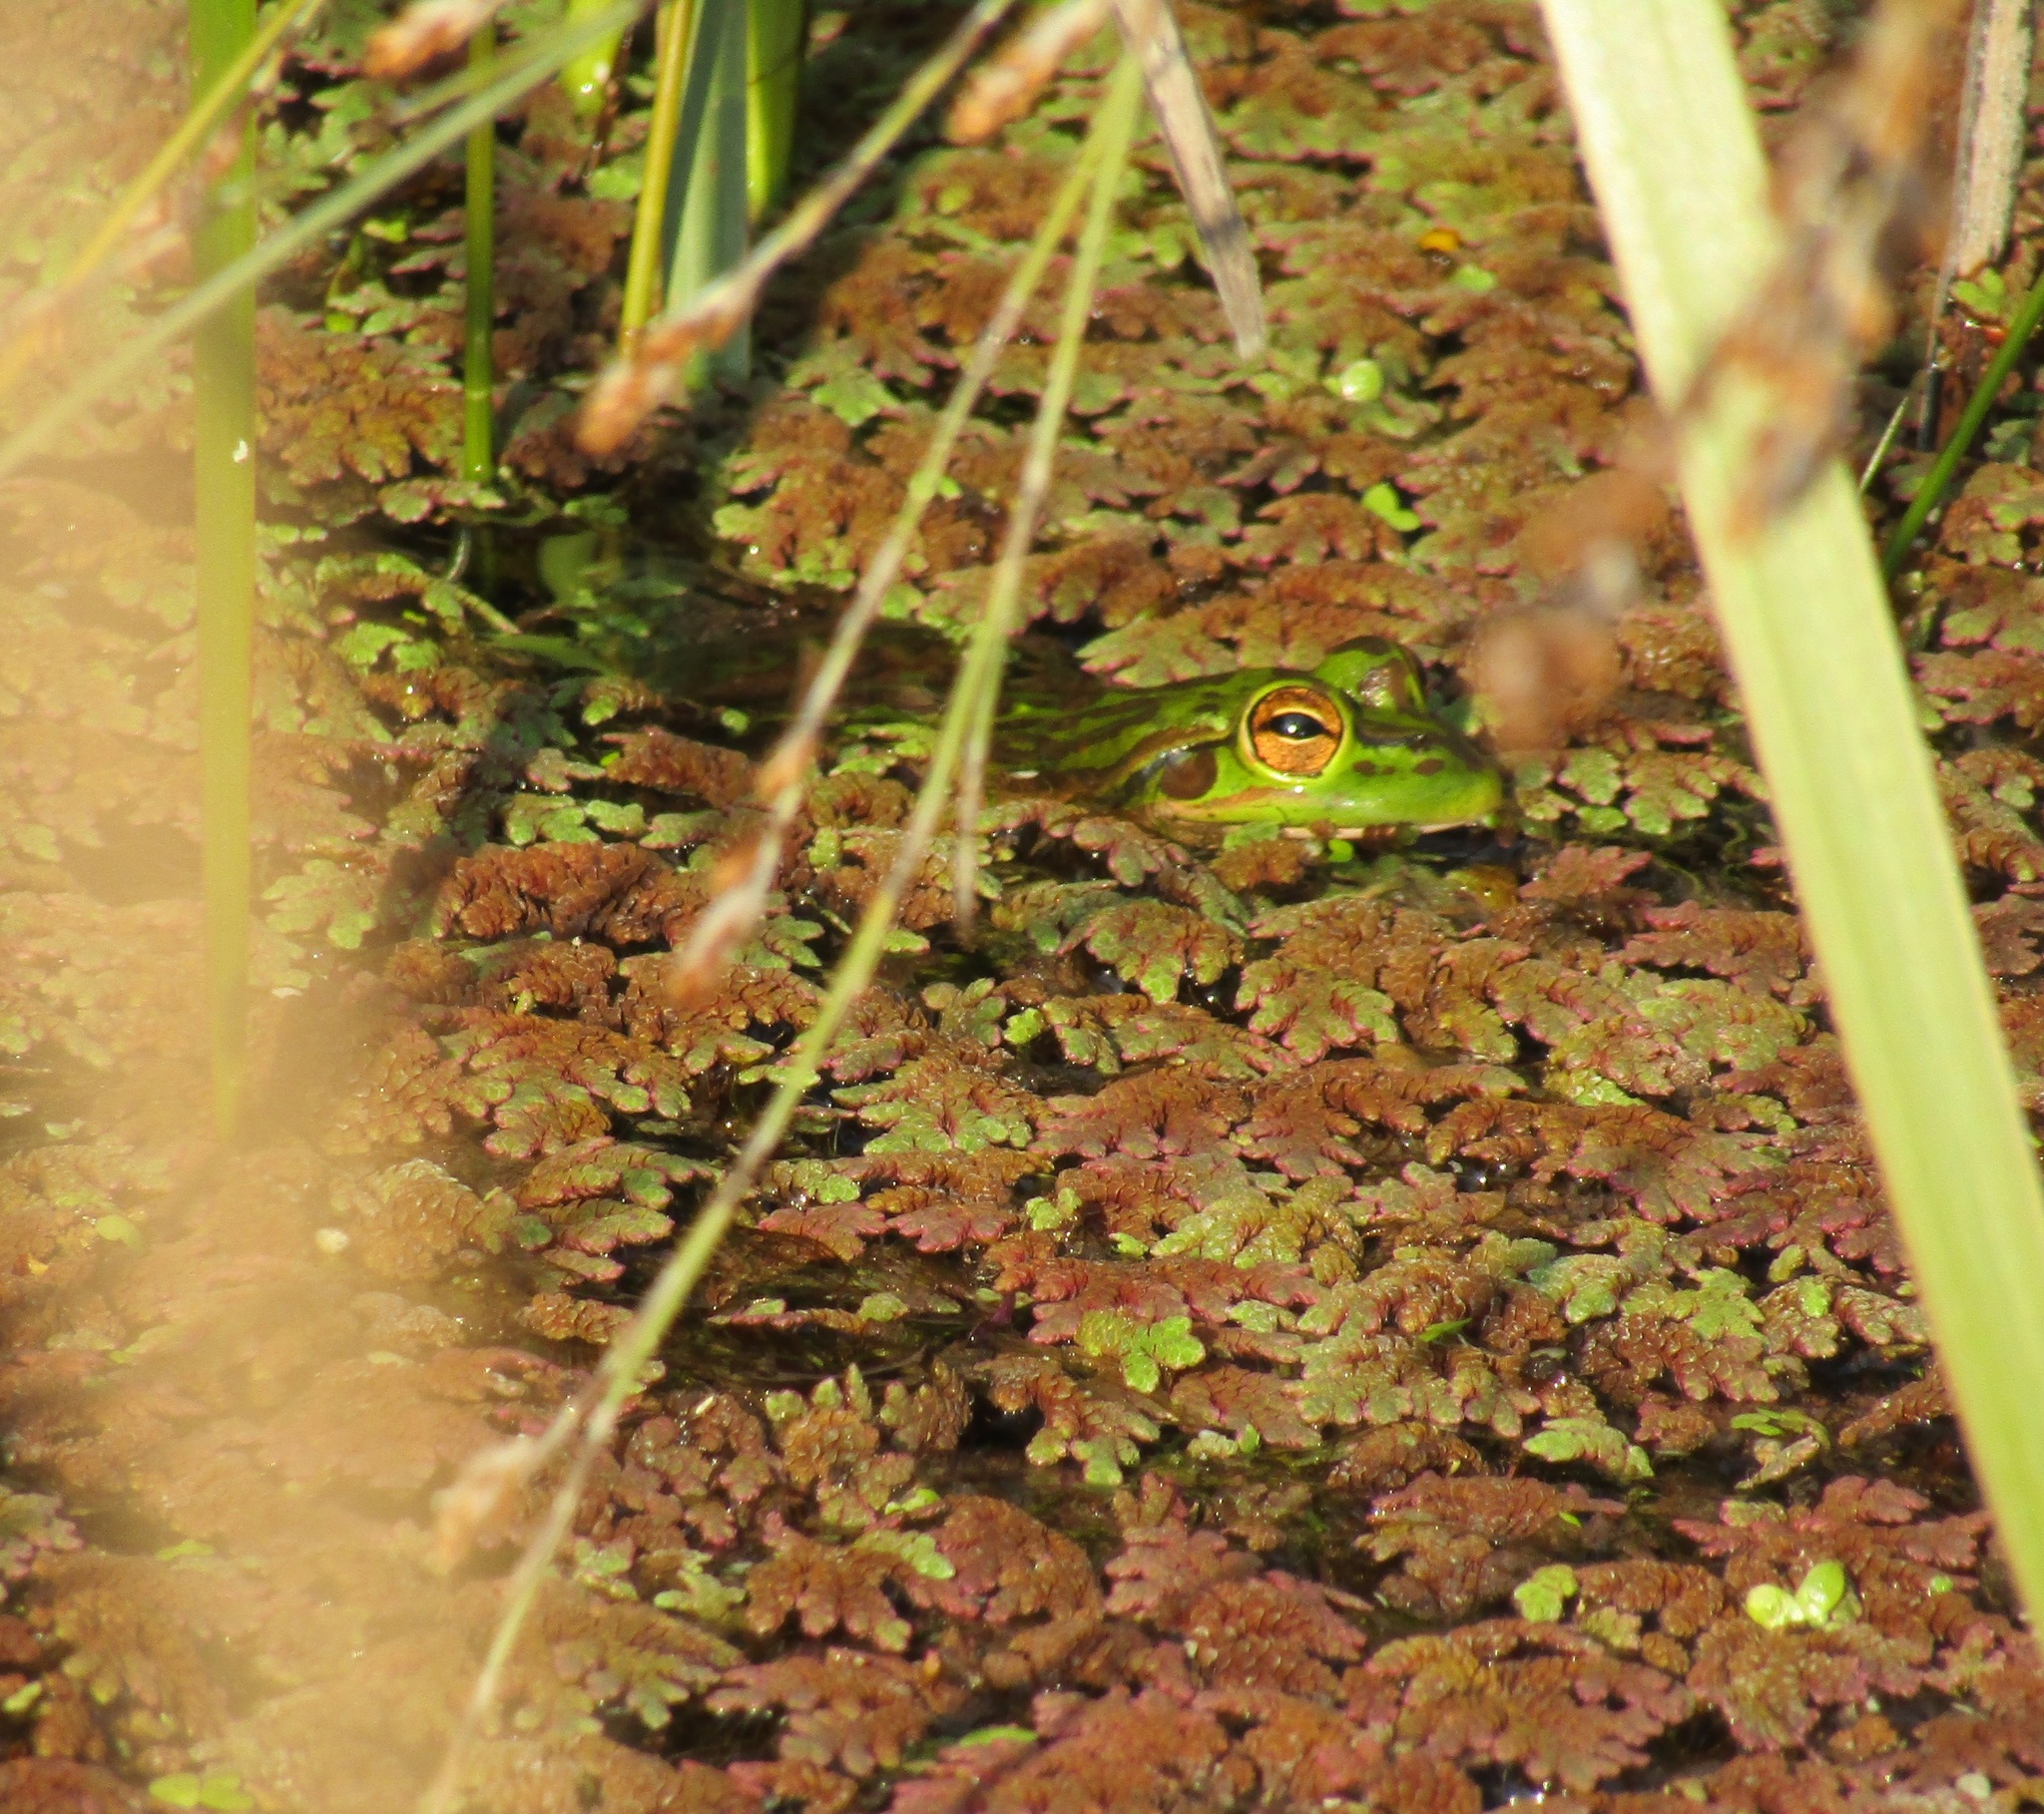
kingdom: Animalia
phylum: Chordata
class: Amphibia
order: Anura
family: Pelodryadidae
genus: Ranoidea
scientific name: Ranoidea aurea
